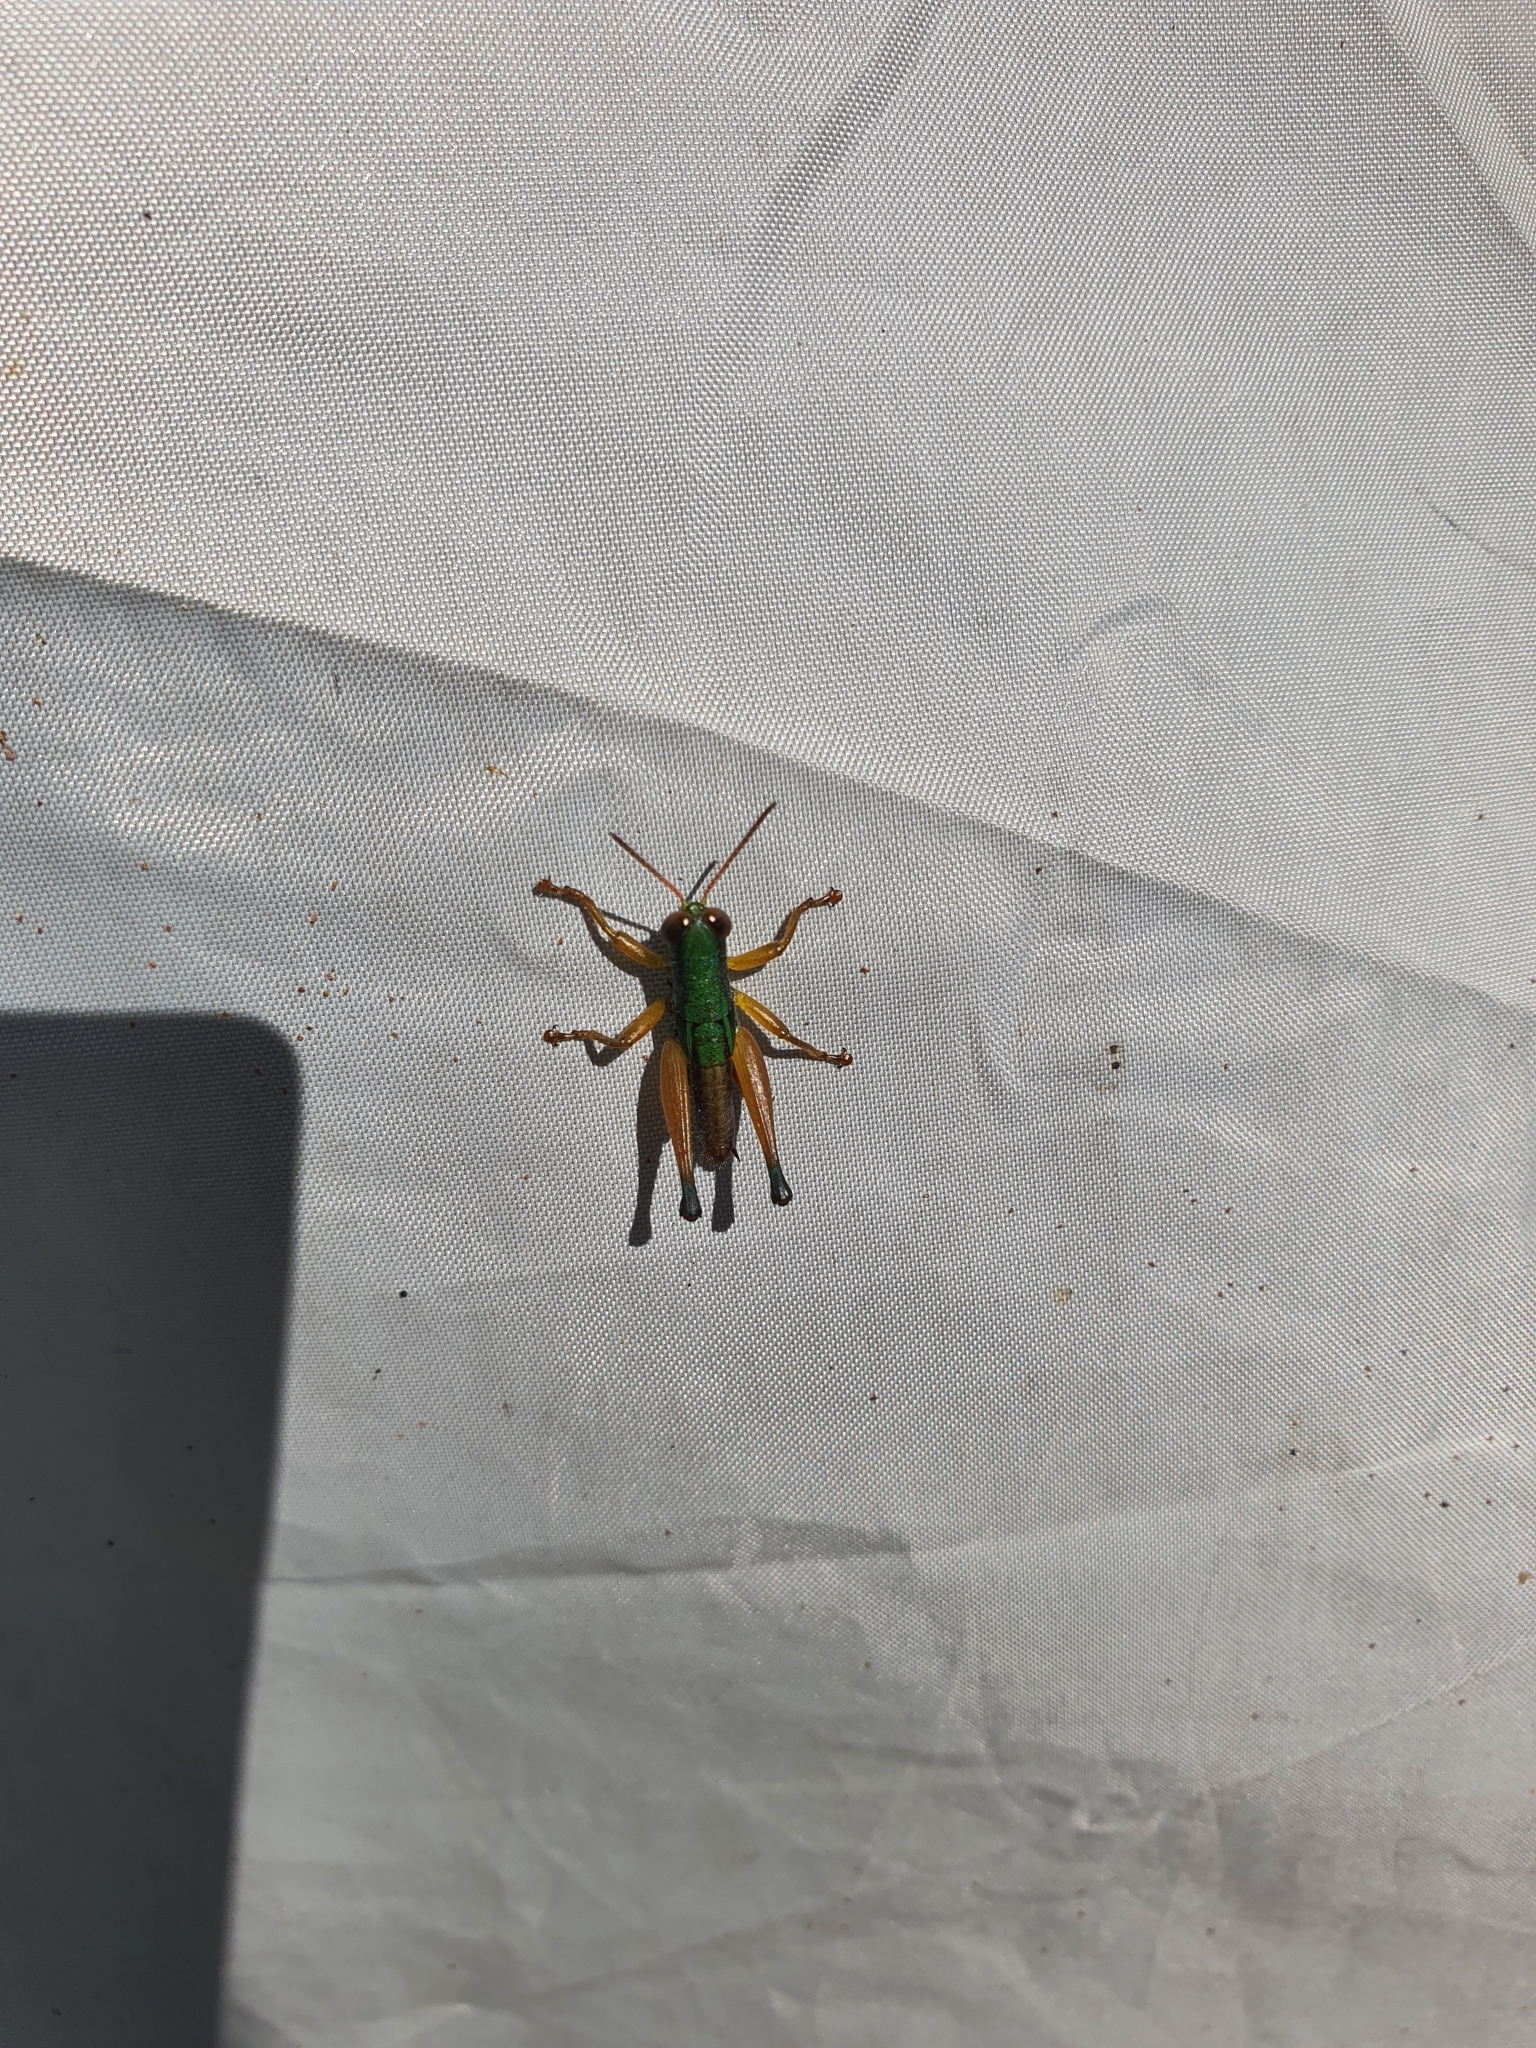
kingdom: Animalia
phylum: Arthropoda
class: Insecta
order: Orthoptera
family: Acrididae
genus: Caryanda
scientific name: Caryanda spuria
